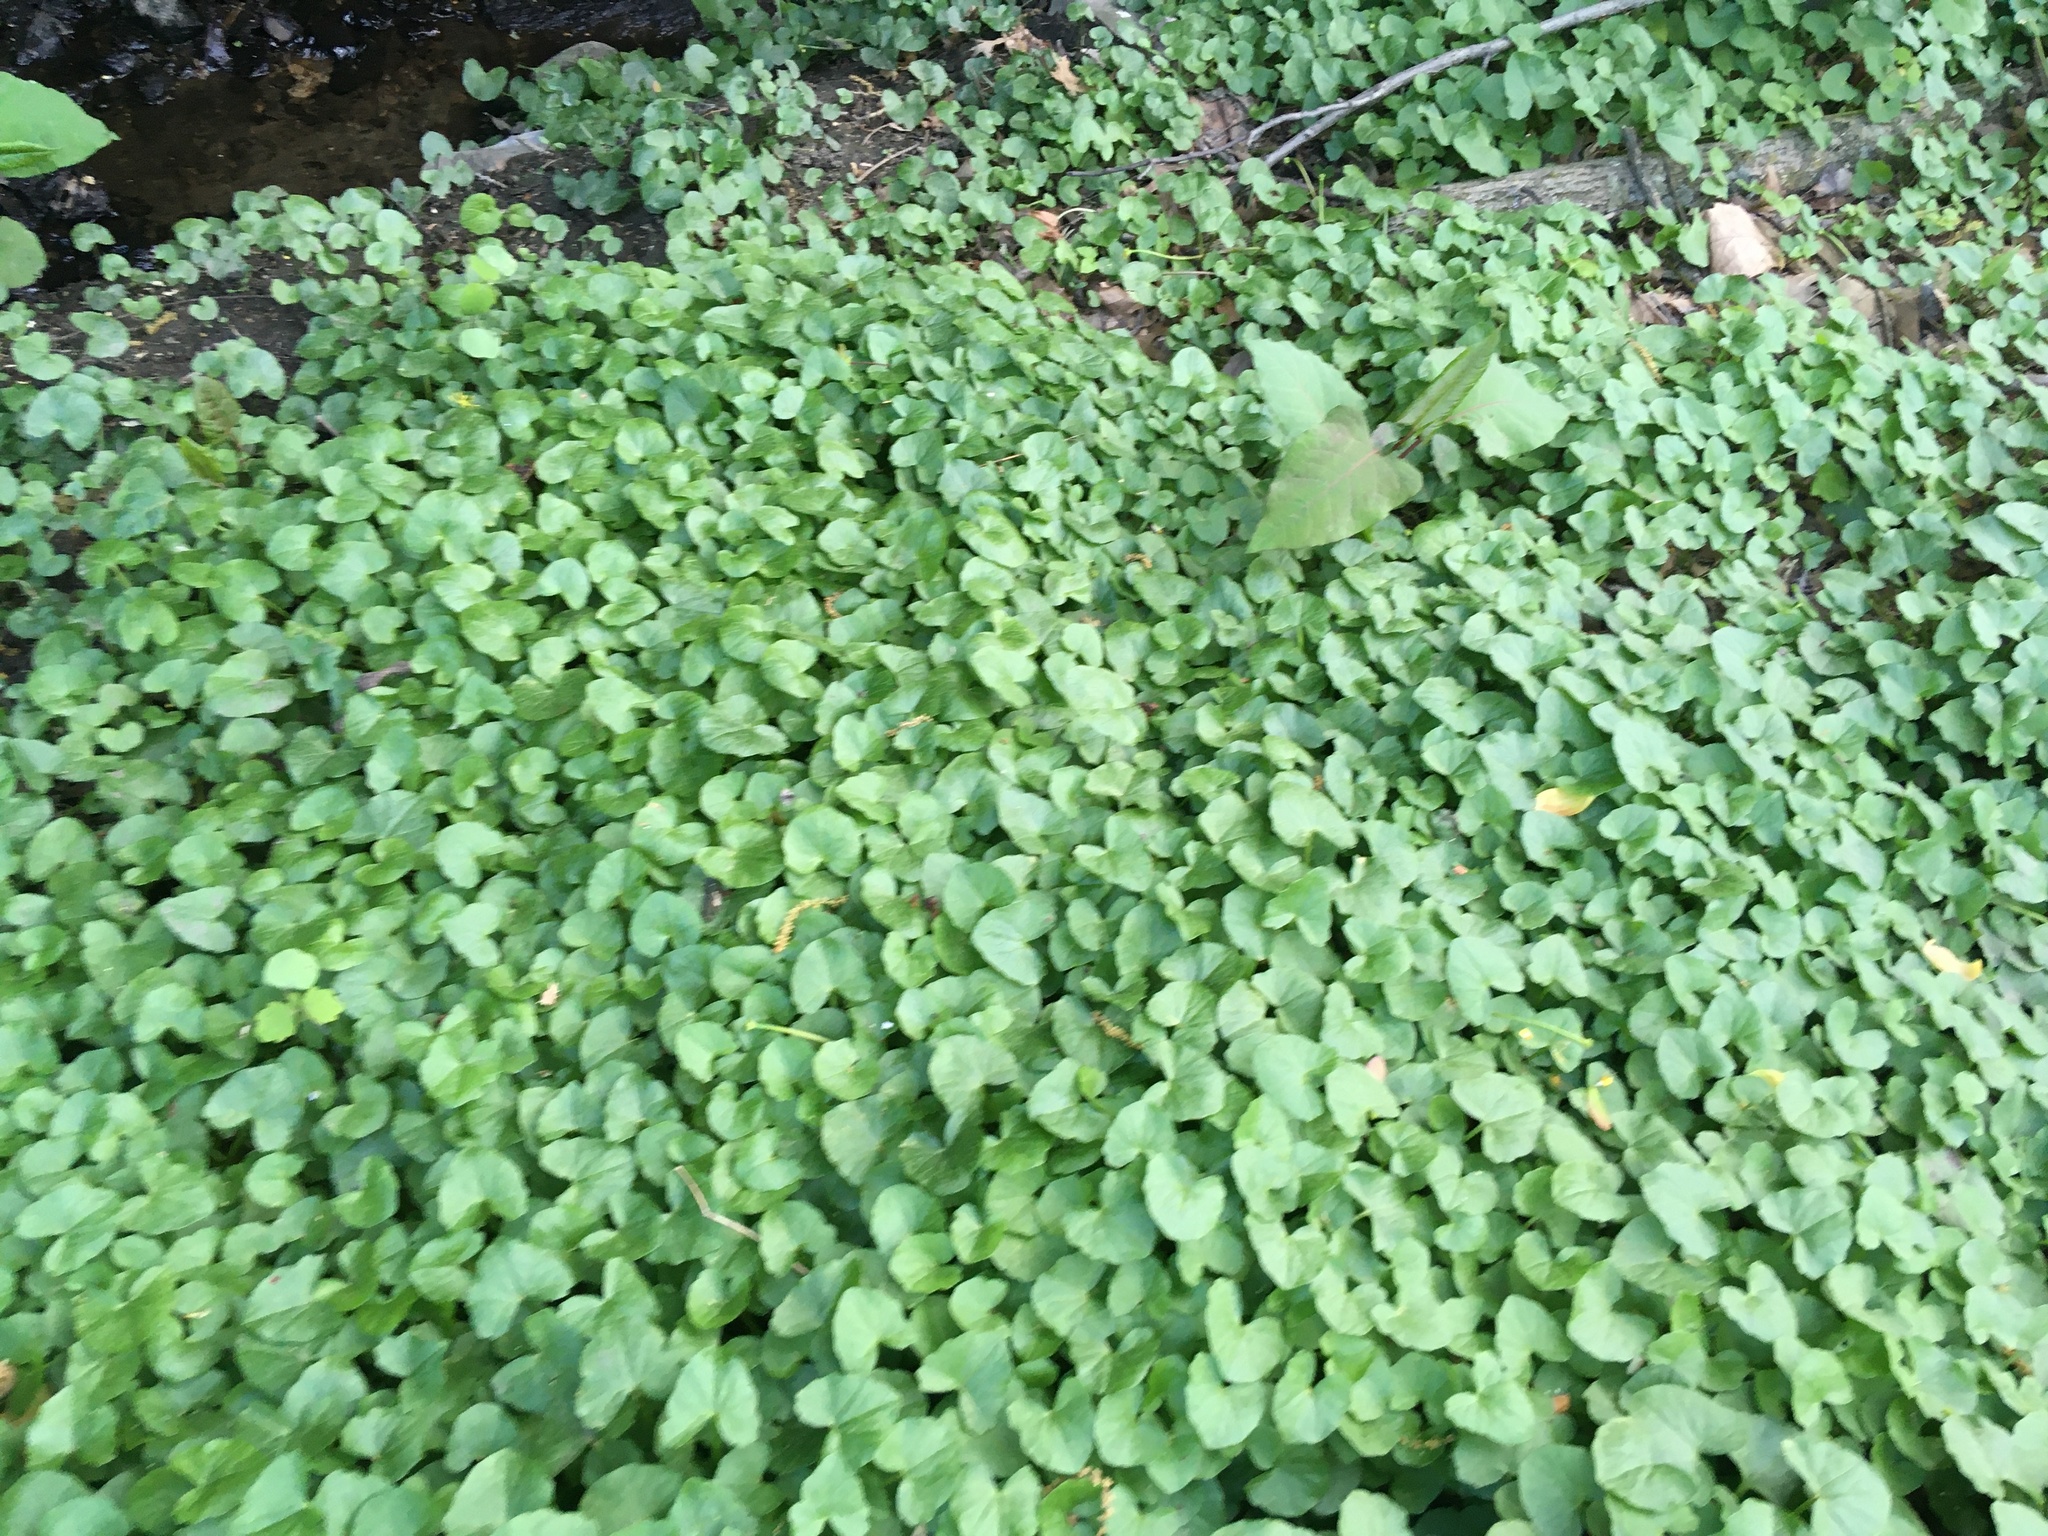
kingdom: Plantae
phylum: Tracheophyta
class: Magnoliopsida
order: Ranunculales
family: Ranunculaceae
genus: Ficaria
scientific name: Ficaria verna
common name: Lesser celandine
